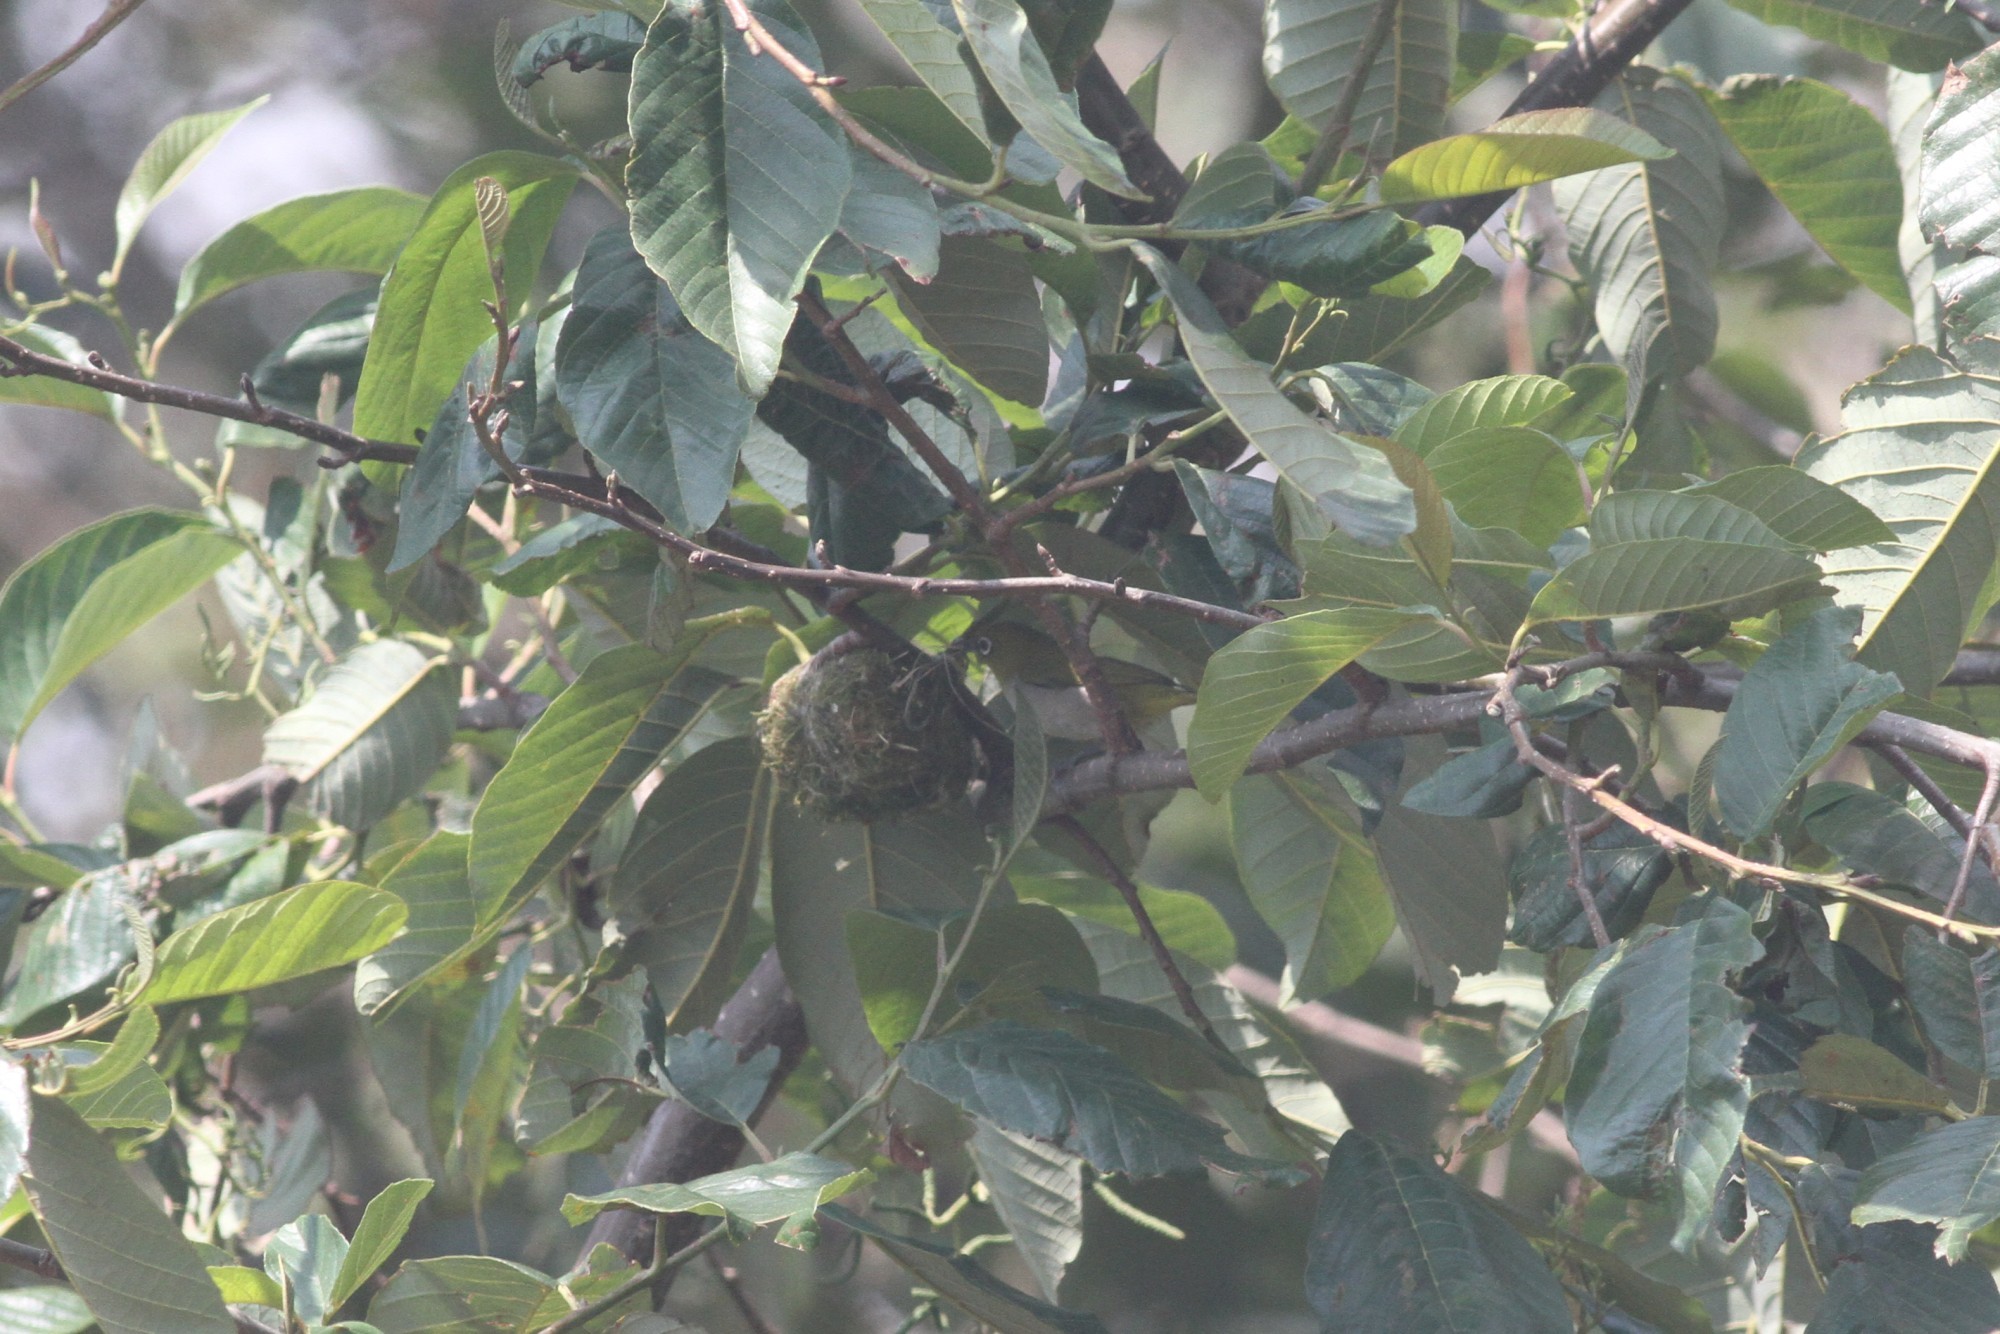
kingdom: Animalia
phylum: Chordata
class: Aves
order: Passeriformes
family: Zosteropidae
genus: Zosterops
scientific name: Zosterops palpebrosus
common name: Oriental white-eye
